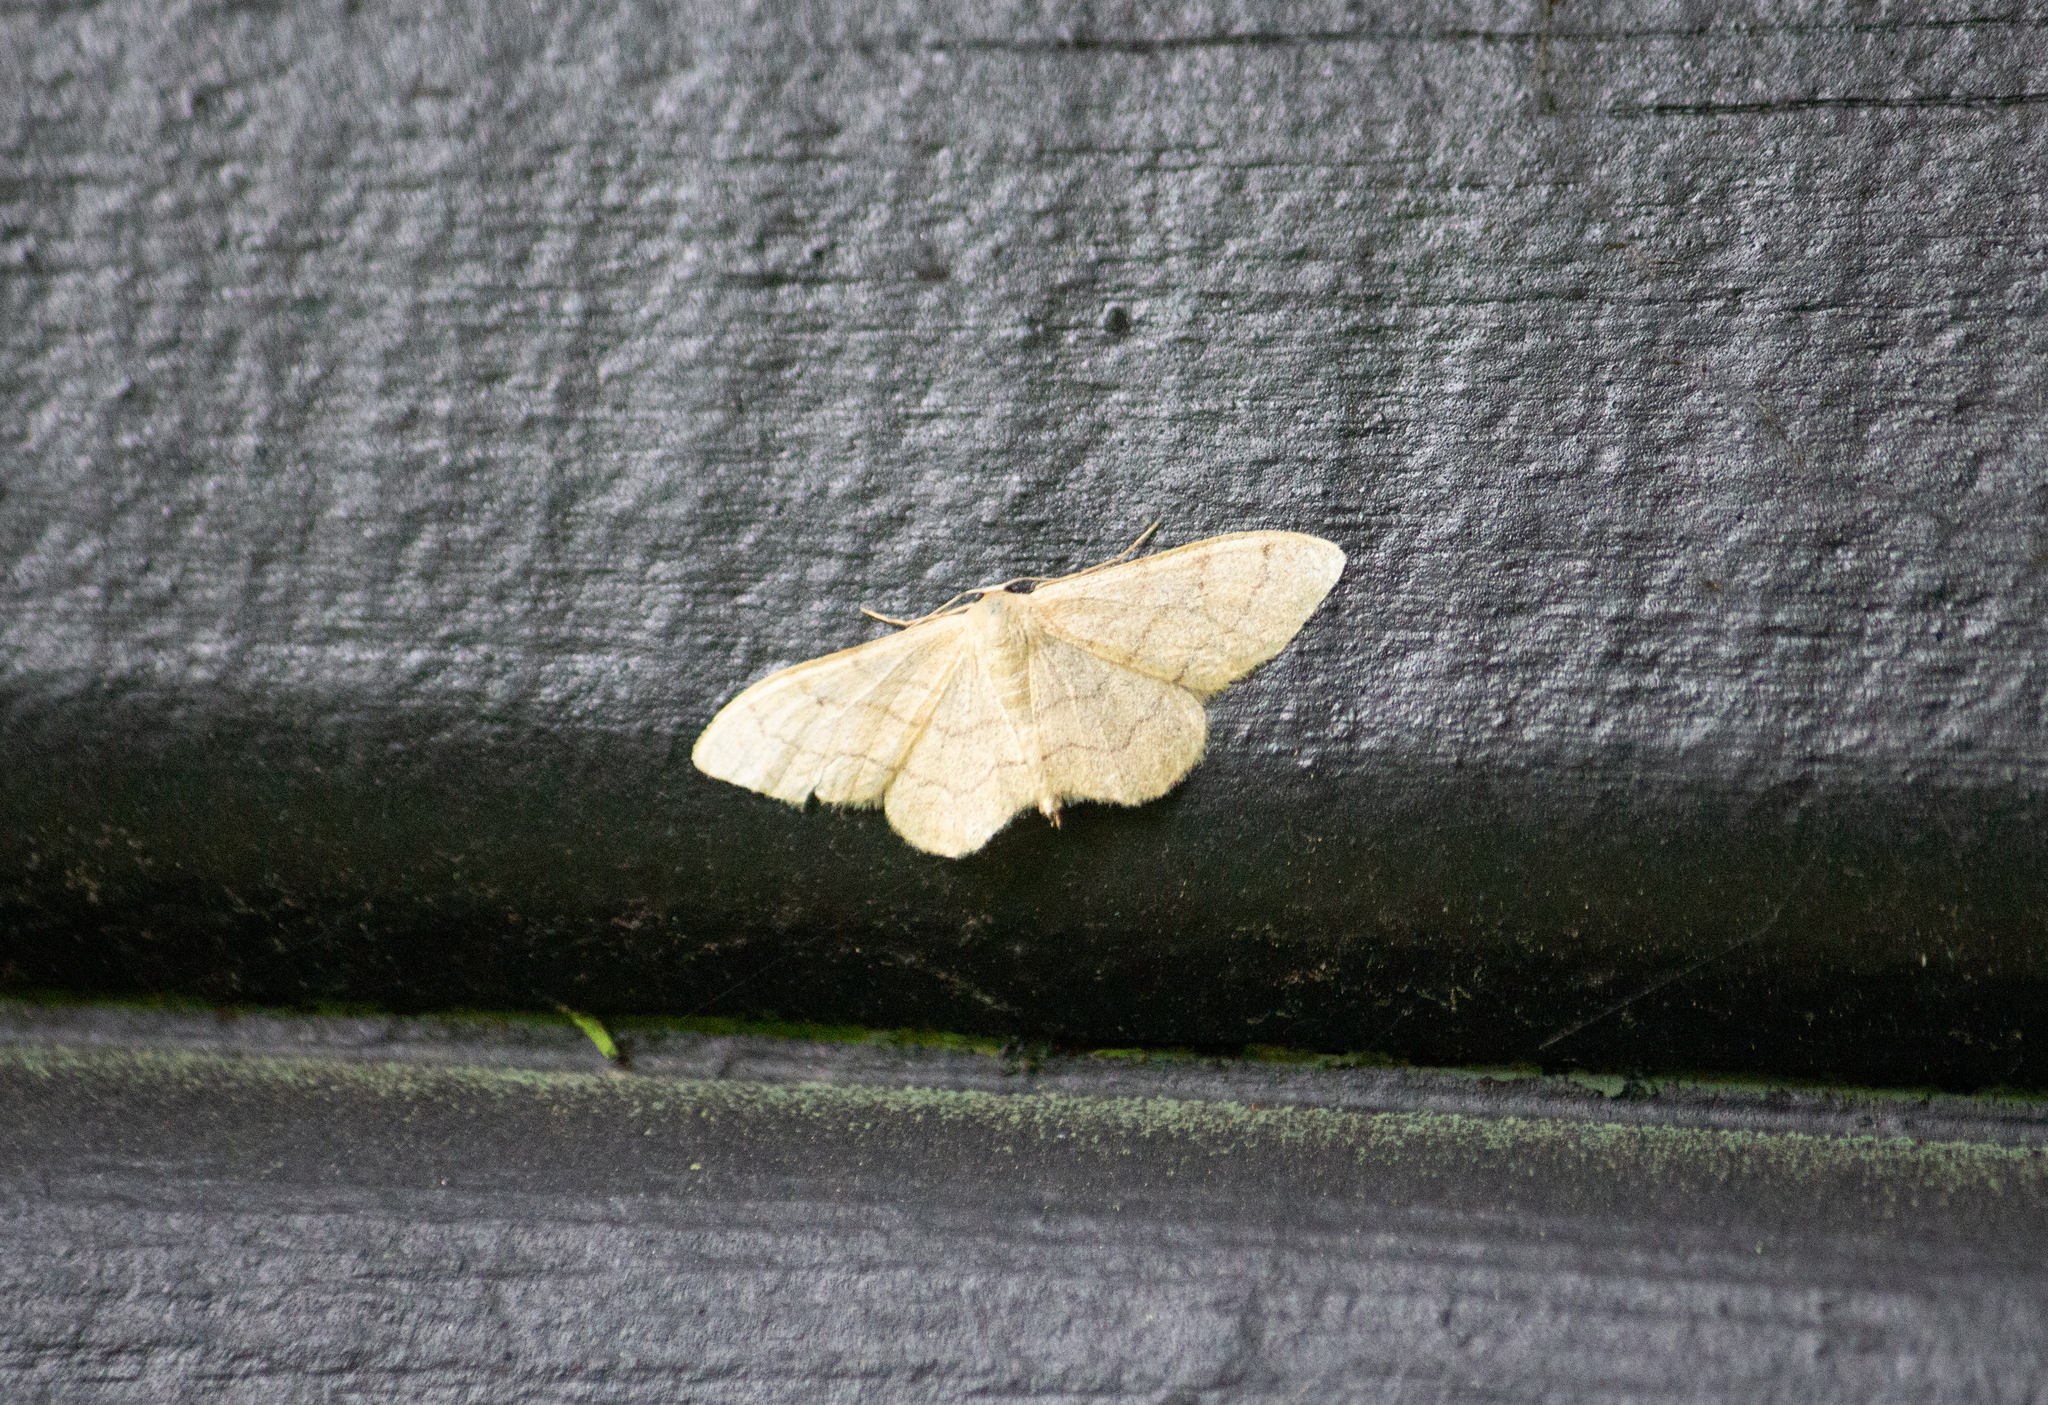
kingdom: Animalia
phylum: Arthropoda
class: Insecta
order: Lepidoptera
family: Geometridae
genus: Idaea
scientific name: Idaea aversata
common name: Riband wave
